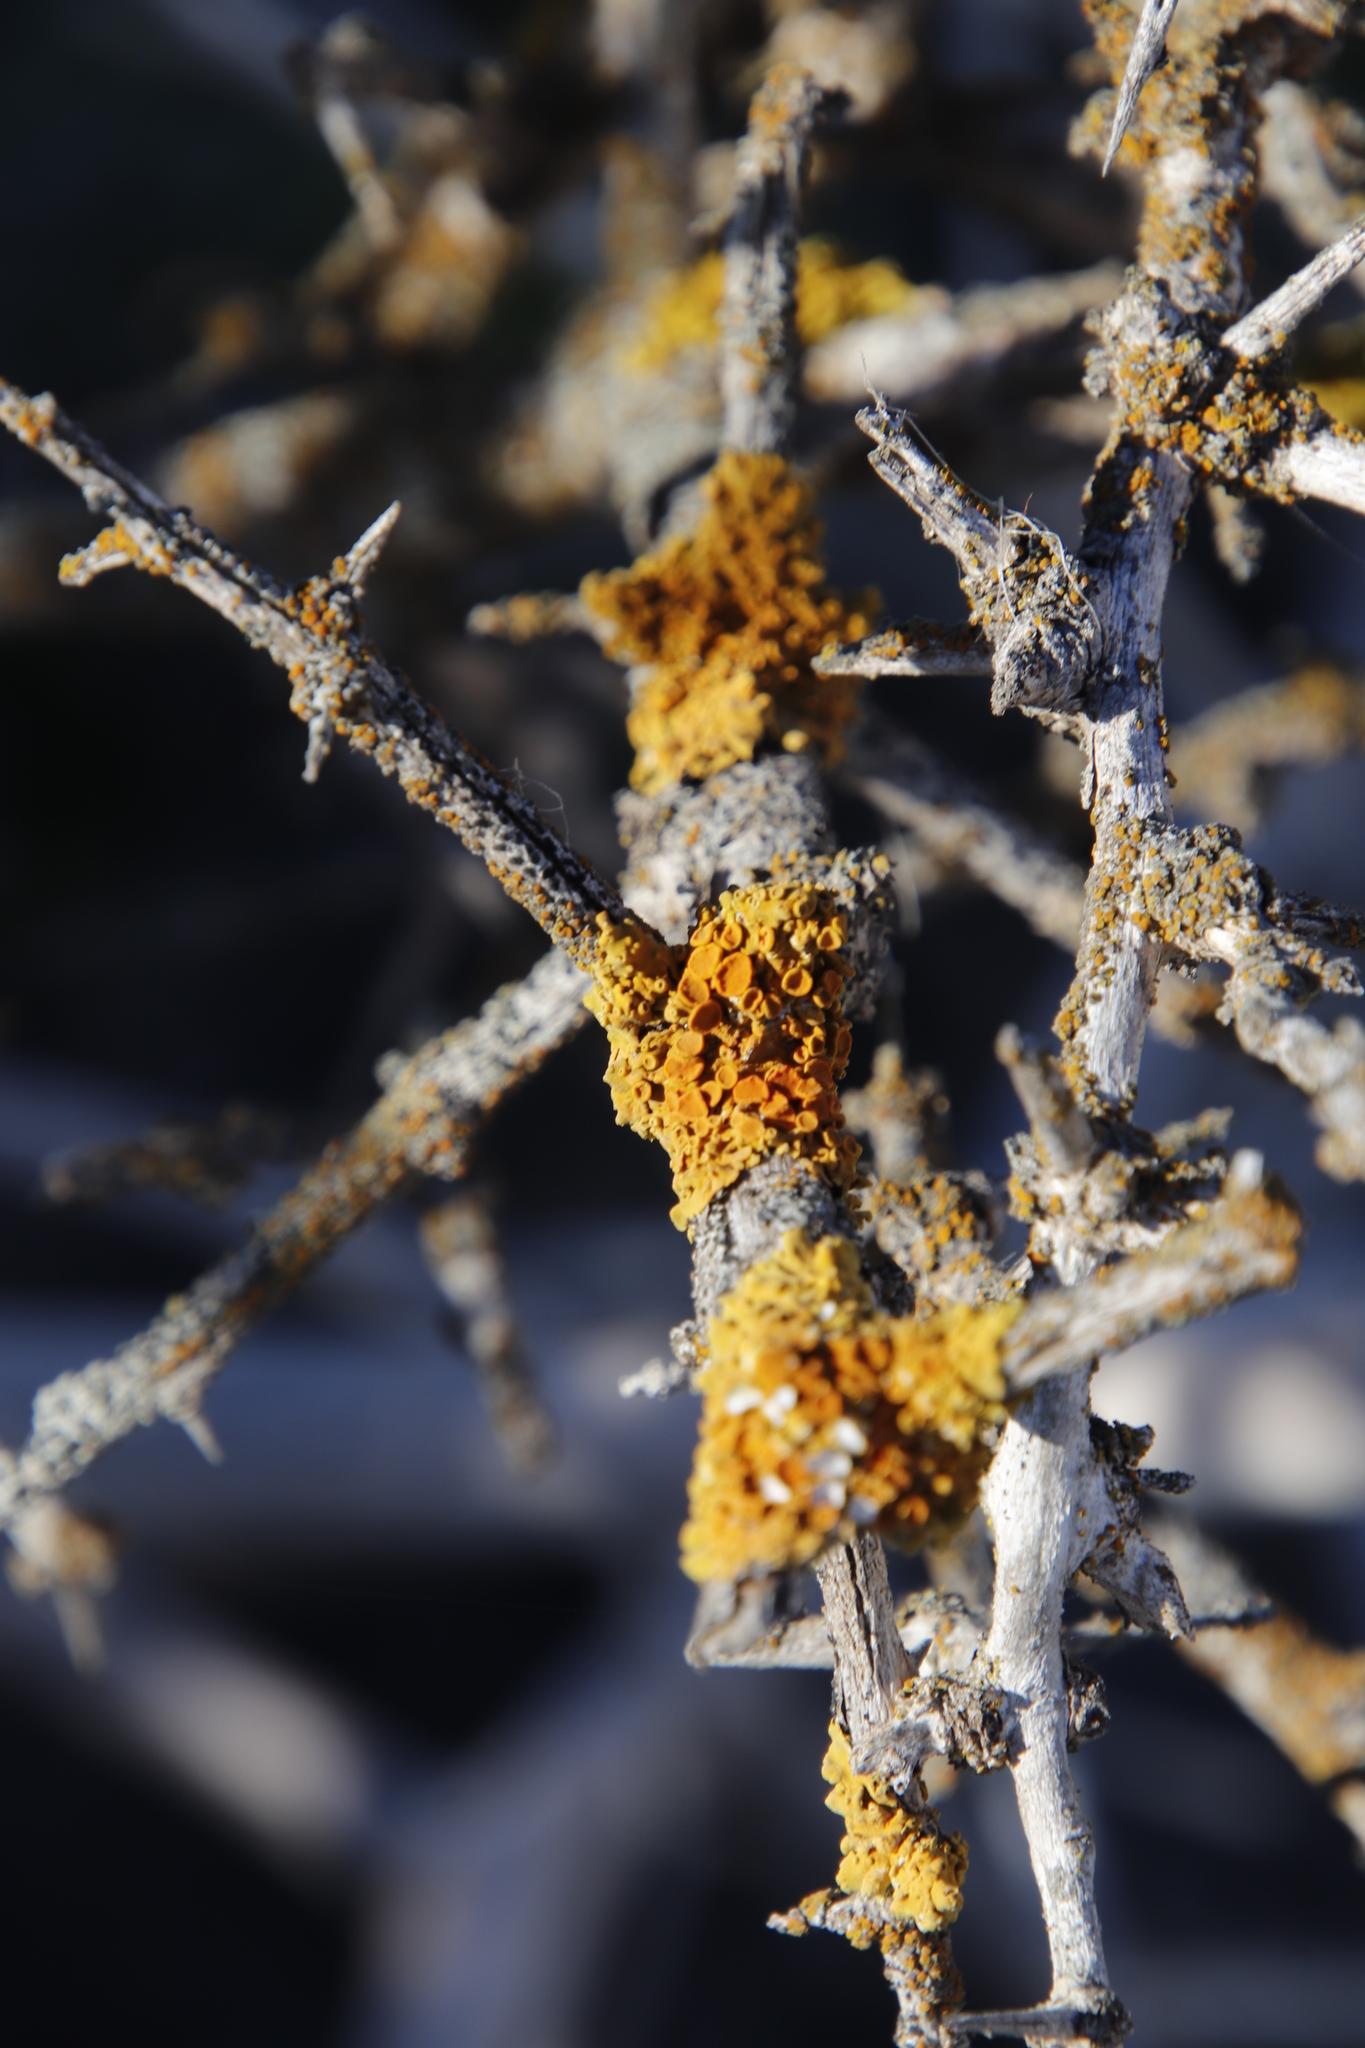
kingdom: Fungi
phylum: Ascomycota
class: Lecanoromycetes
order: Teloschistales
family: Teloschistaceae
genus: Xanthoria
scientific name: Xanthoria parietina
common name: Common orange lichen
